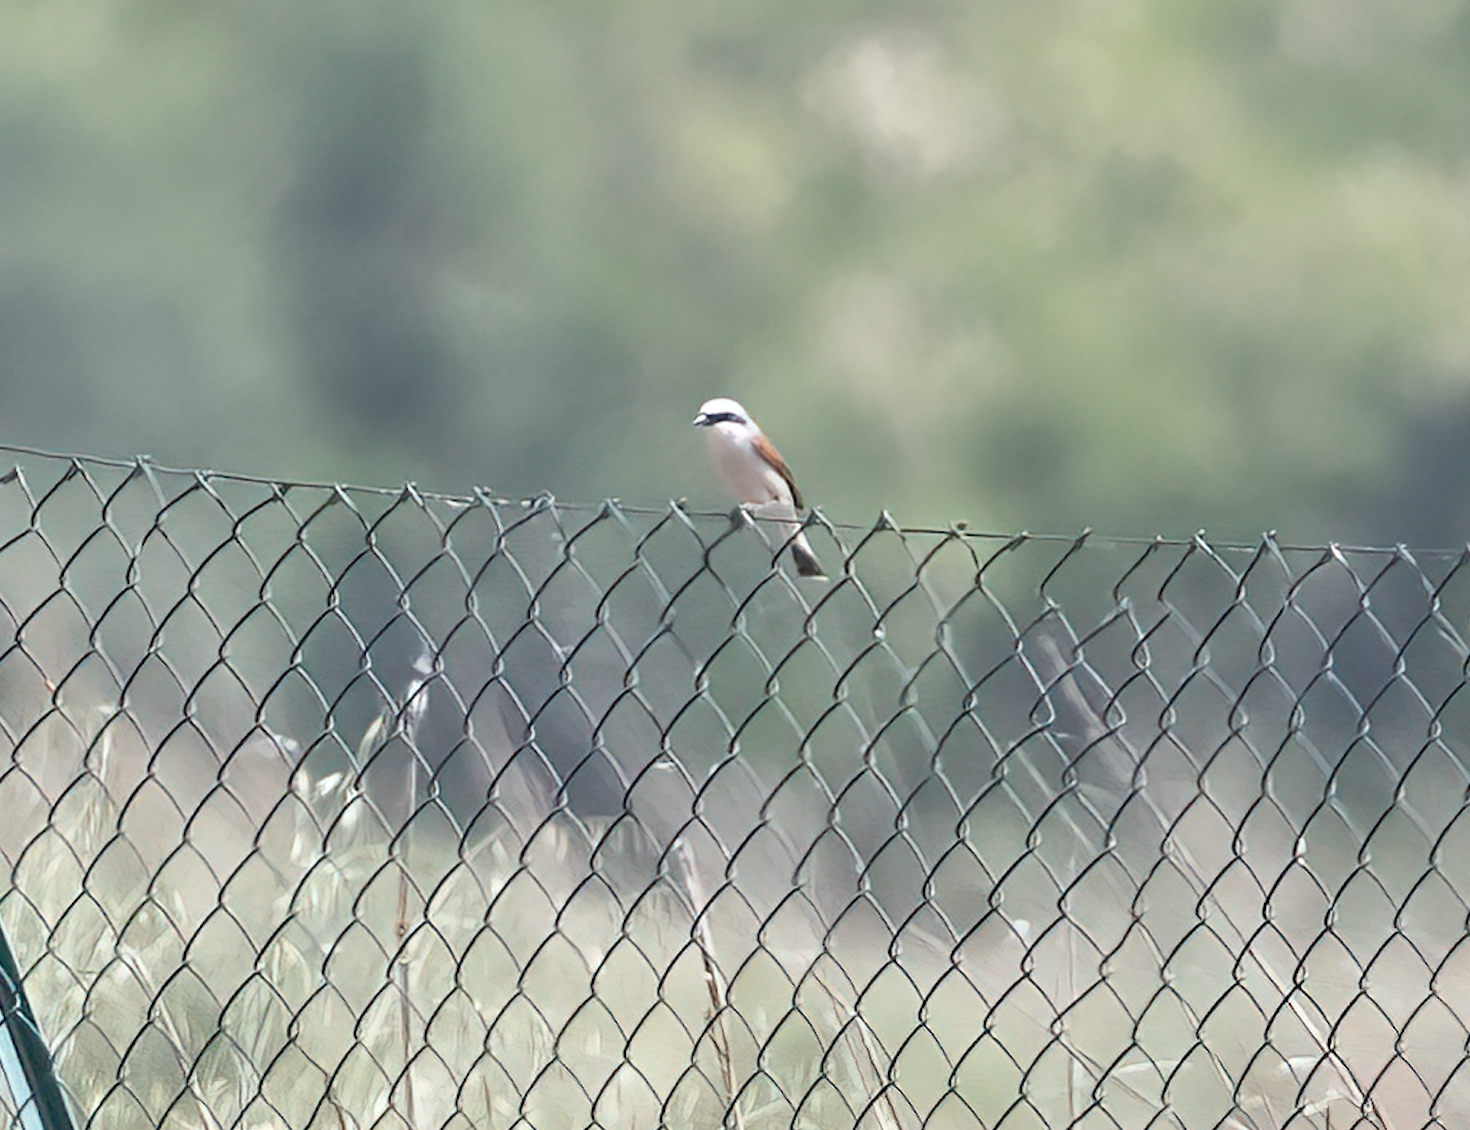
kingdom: Animalia
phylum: Chordata
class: Aves
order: Passeriformes
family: Laniidae
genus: Lanius
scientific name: Lanius collurio
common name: Red-backed shrike
